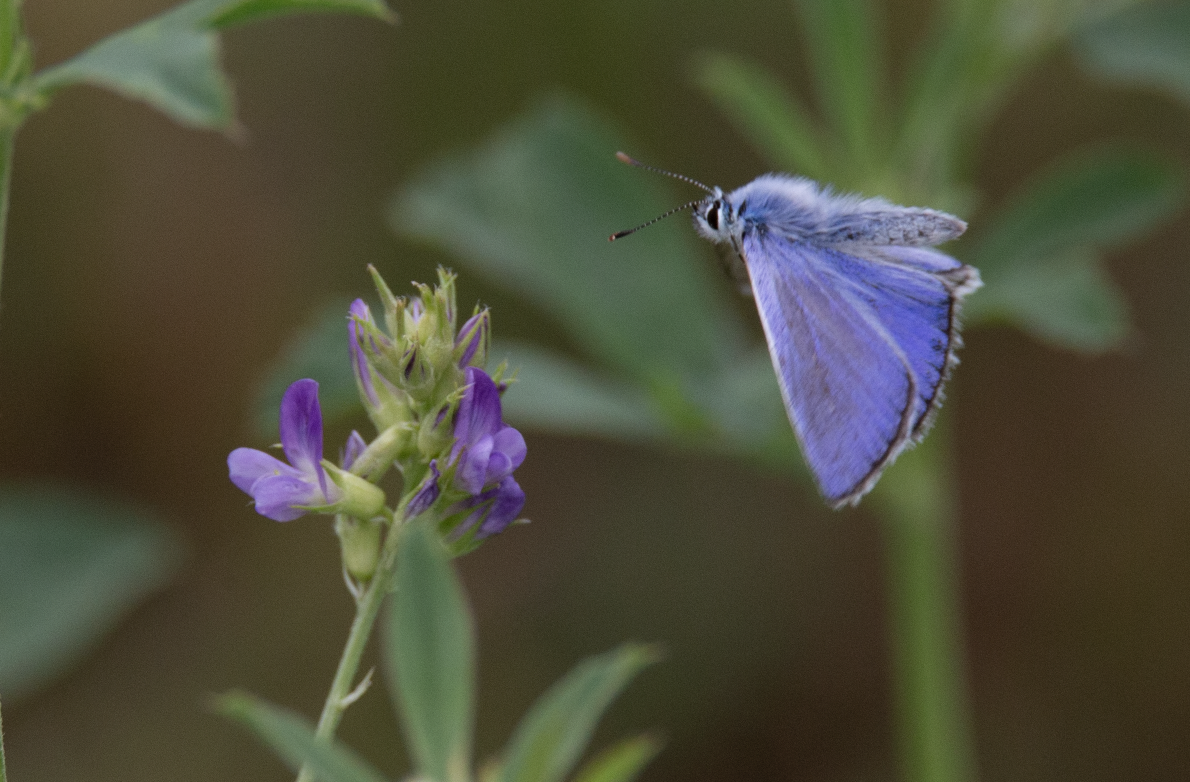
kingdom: Animalia
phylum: Arthropoda
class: Insecta
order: Lepidoptera
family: Lycaenidae
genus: Polyommatus
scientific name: Polyommatus icarus
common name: Common blue
